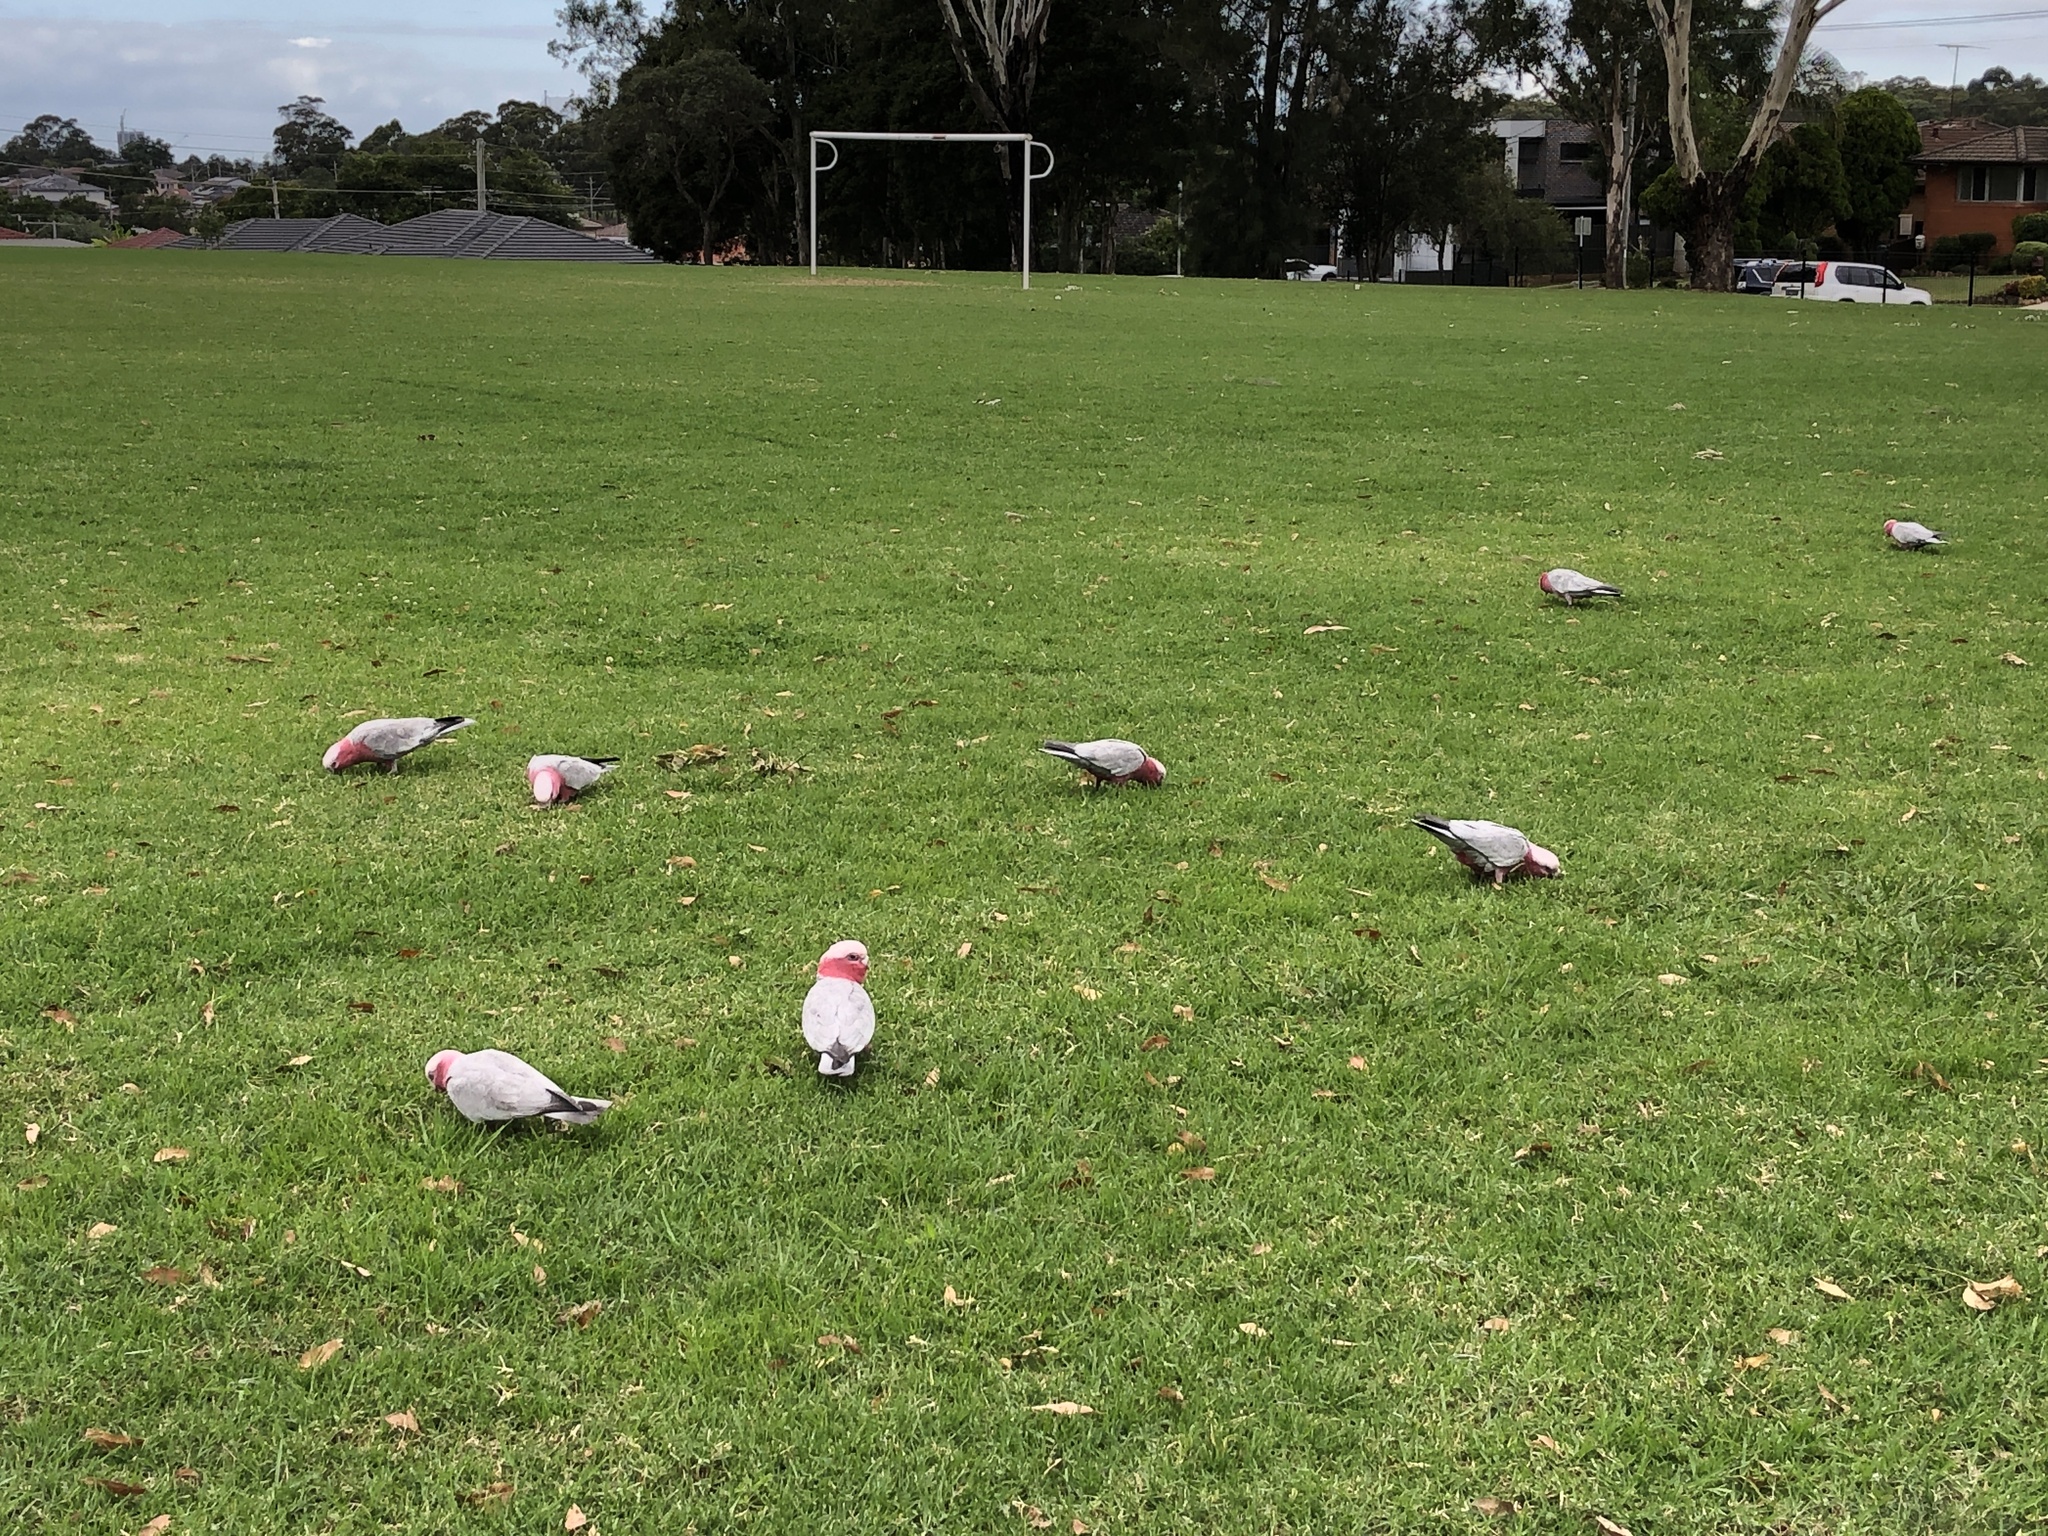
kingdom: Animalia
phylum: Chordata
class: Aves
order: Psittaciformes
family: Psittacidae
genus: Eolophus
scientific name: Eolophus roseicapilla
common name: Galah
